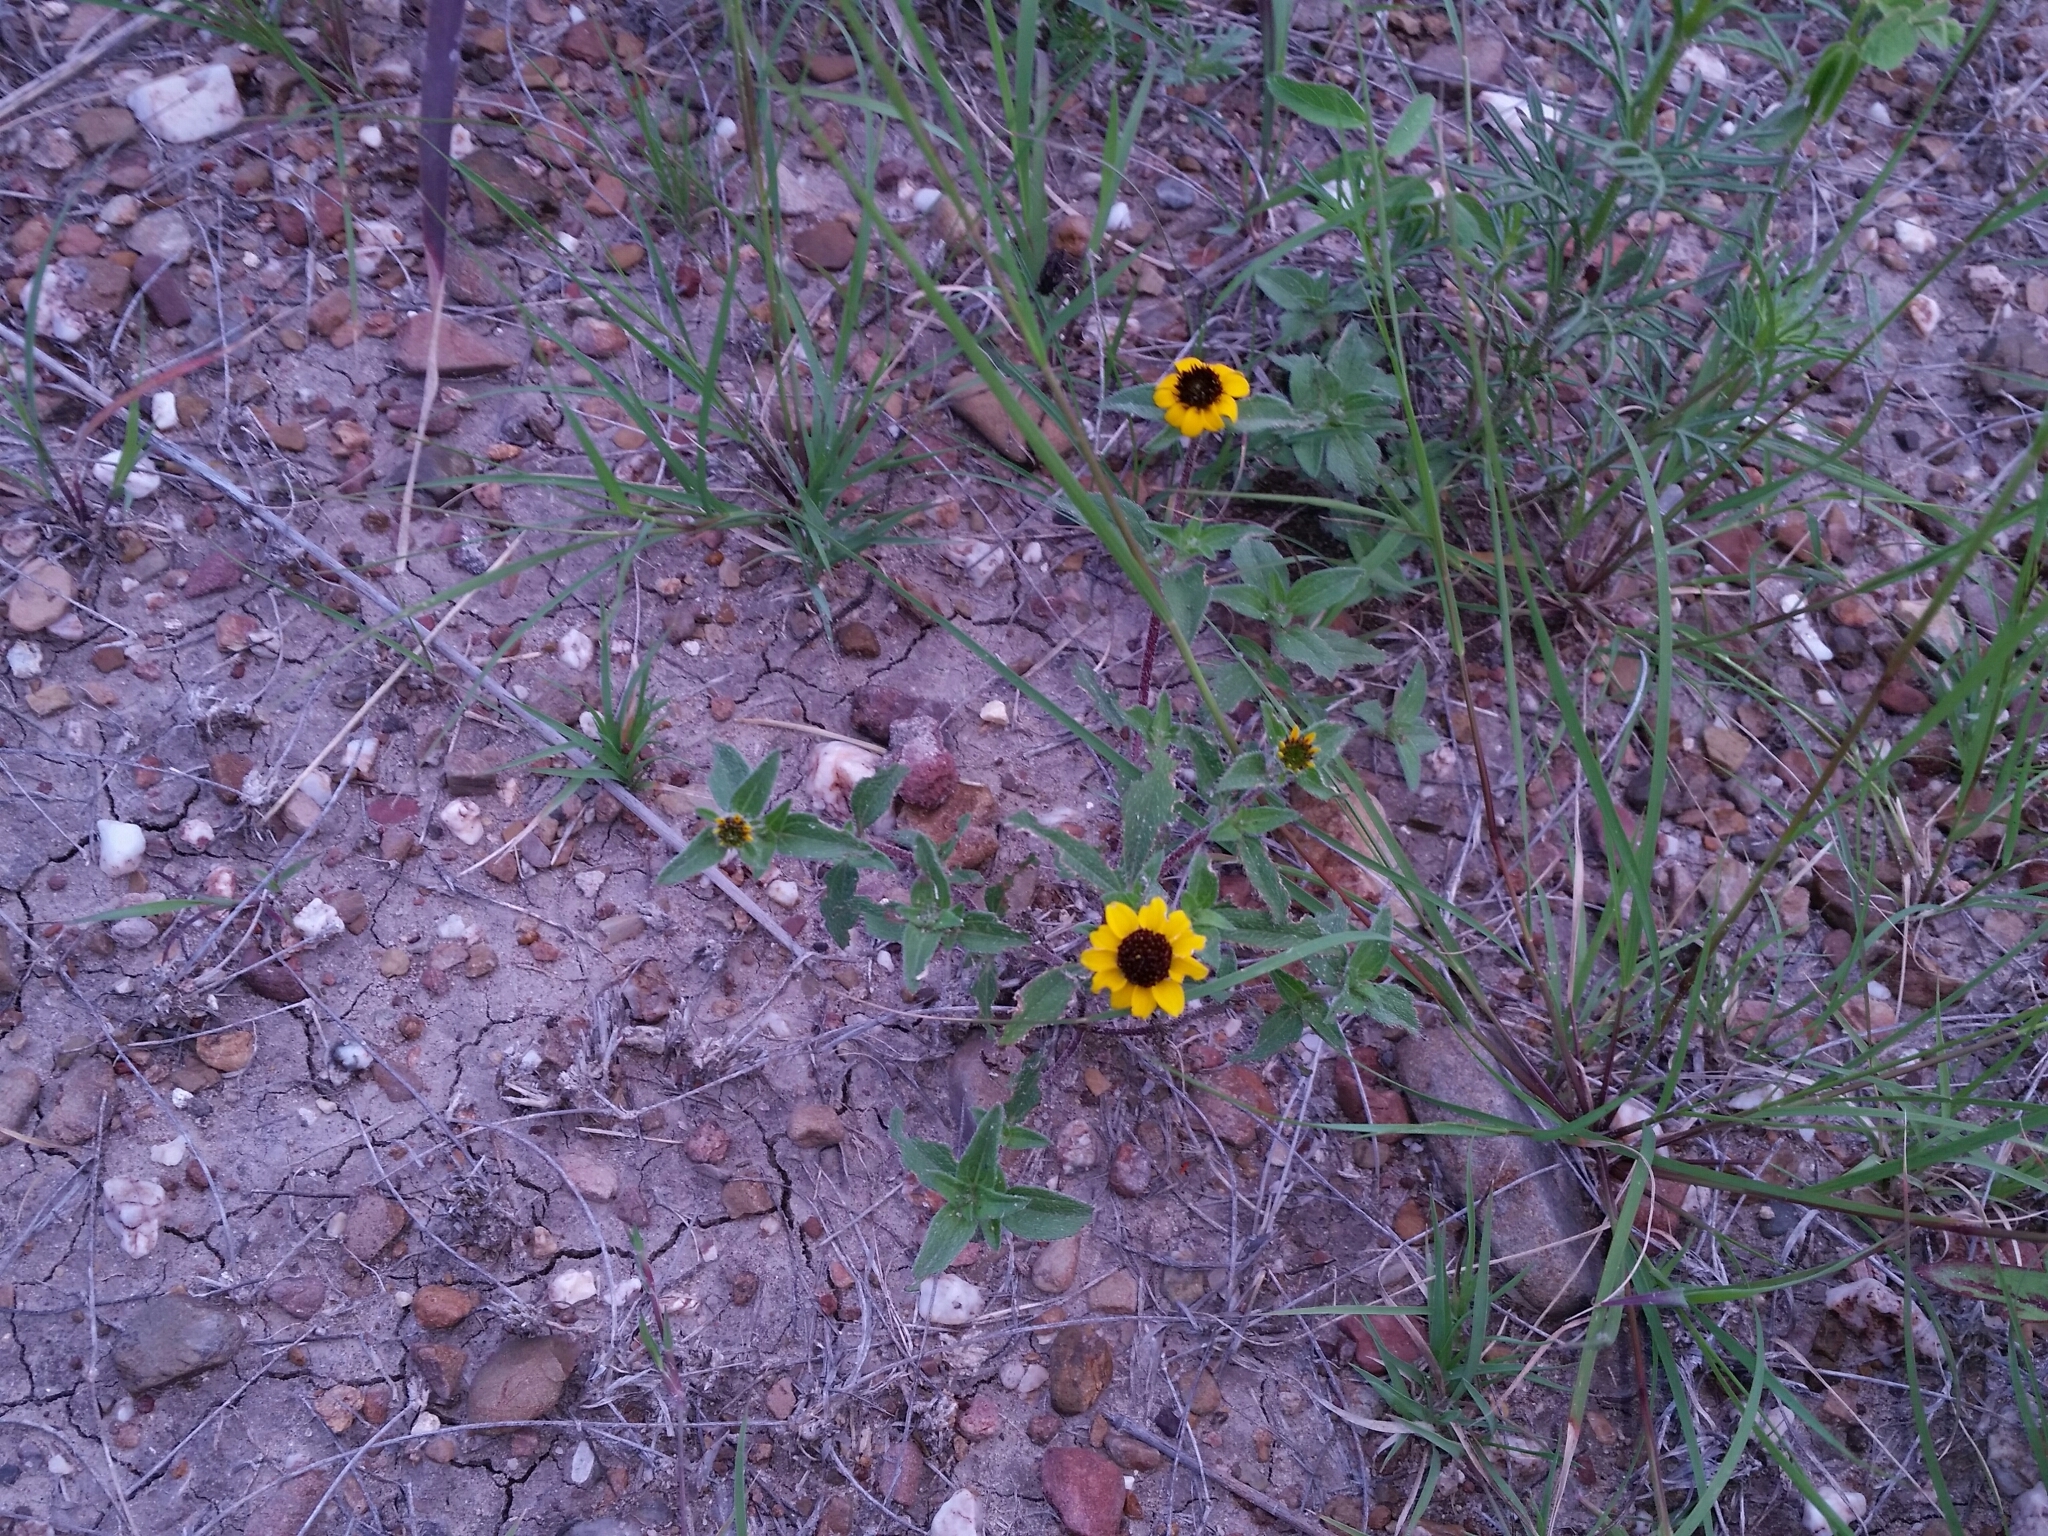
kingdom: Plantae
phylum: Tracheophyta
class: Magnoliopsida
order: Asterales
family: Asteraceae
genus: Sanvitalia
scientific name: Sanvitalia procumbens
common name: Mexican creeping zinnia
